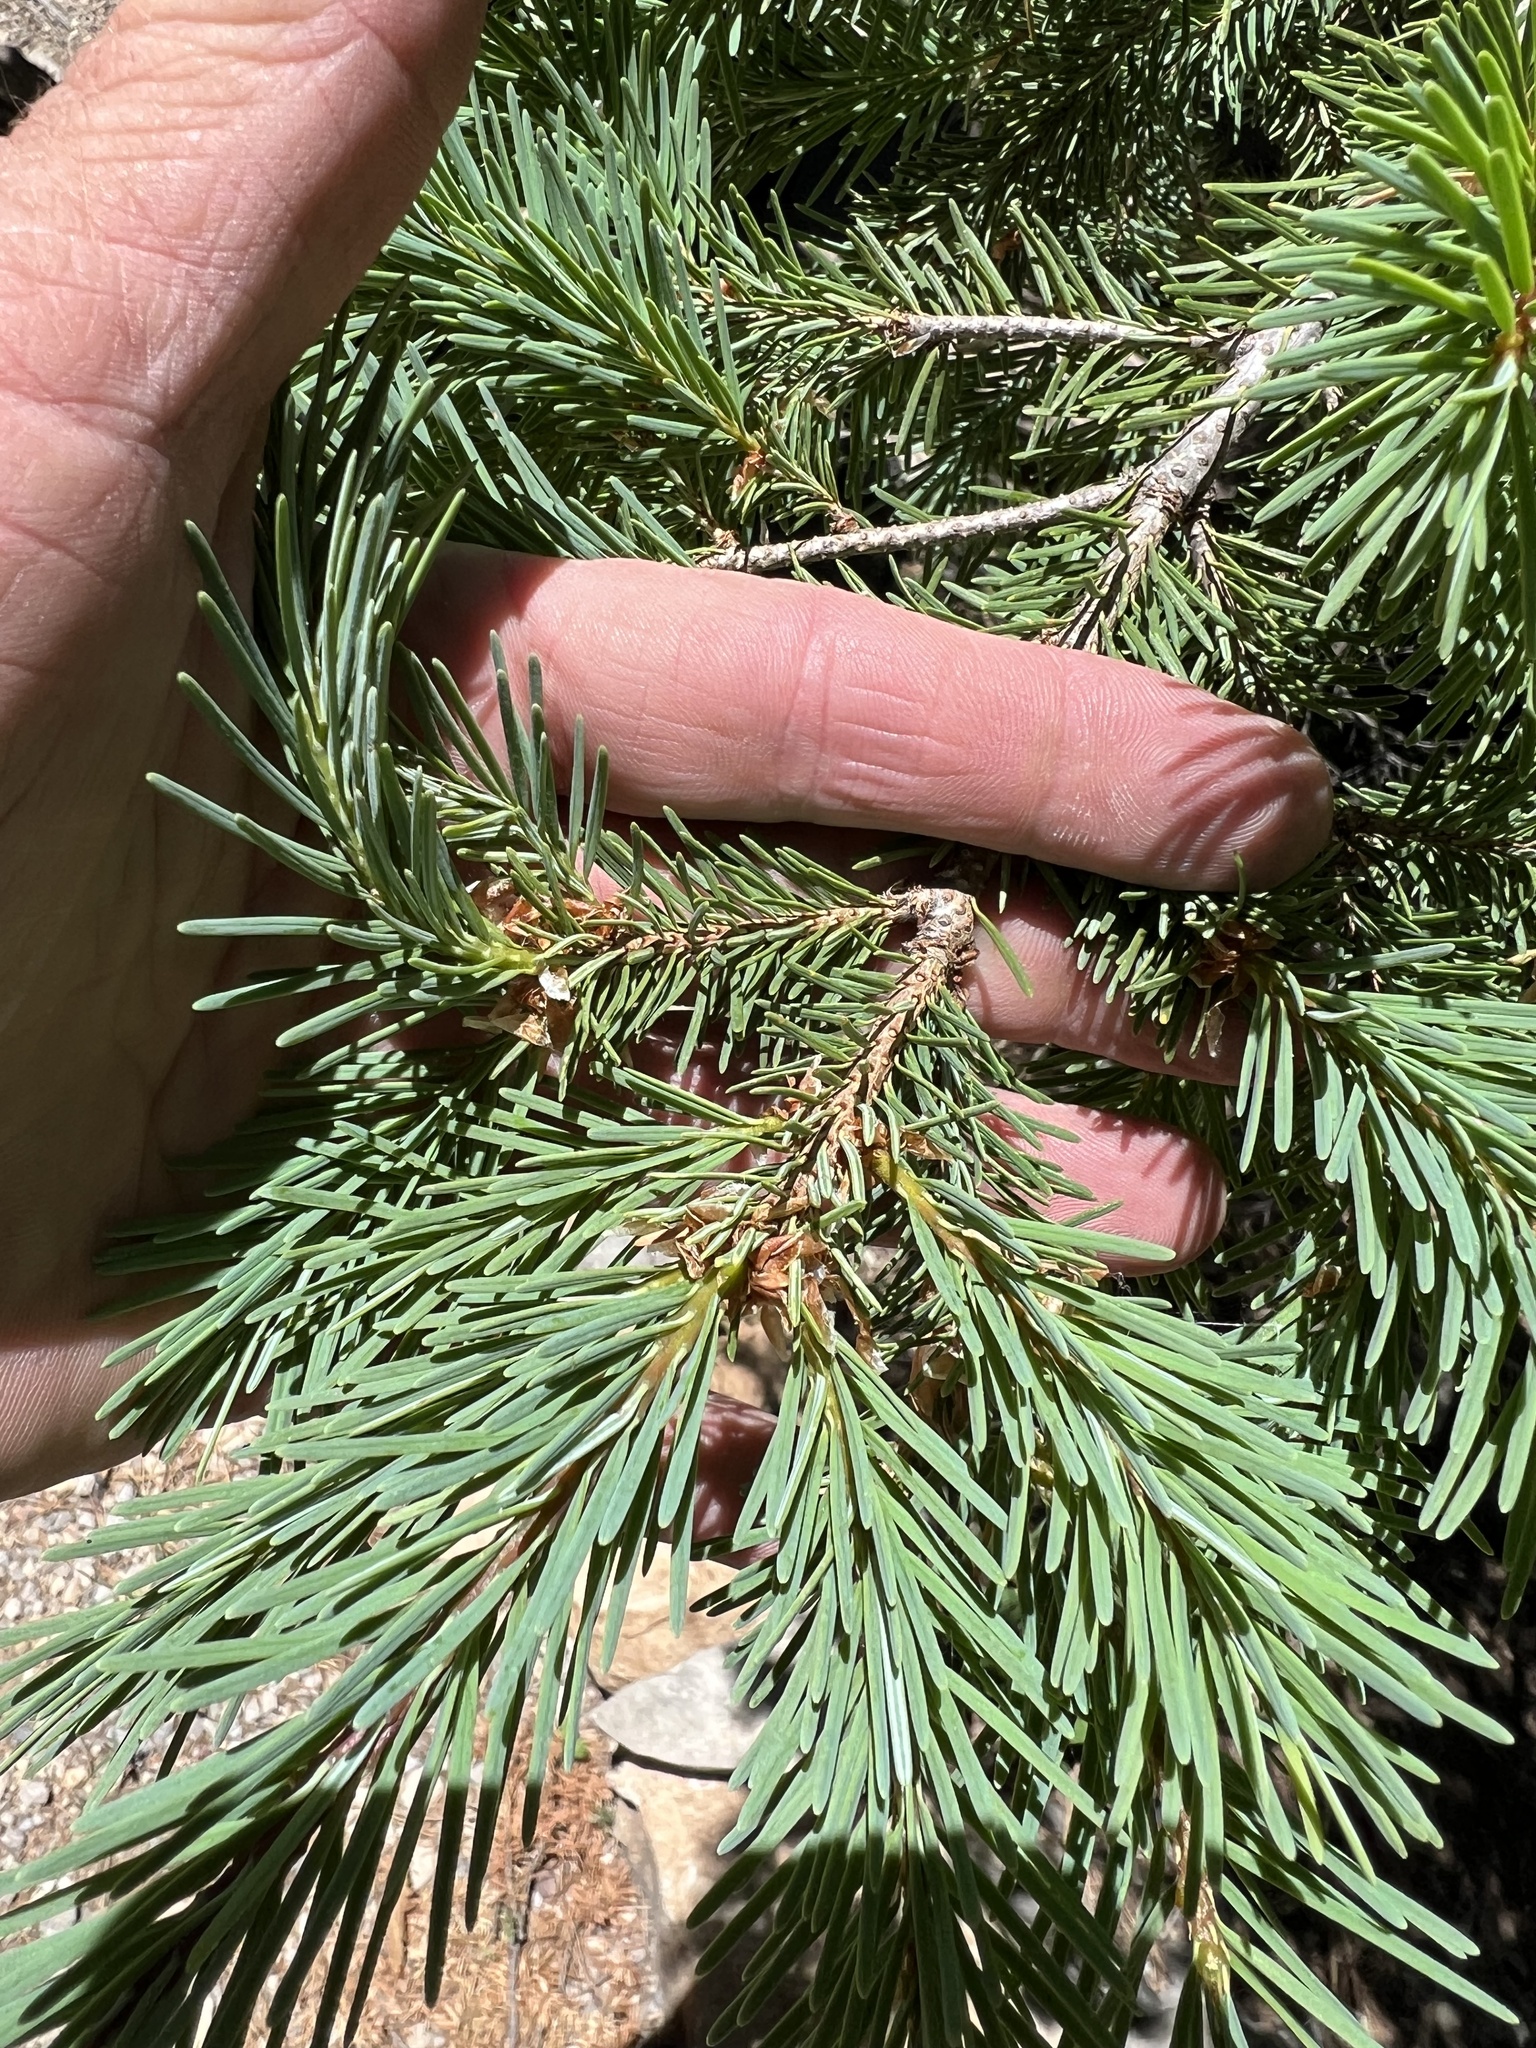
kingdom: Plantae
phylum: Tracheophyta
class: Pinopsida
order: Pinales
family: Pinaceae
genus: Pseudotsuga
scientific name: Pseudotsuga menziesii
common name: Douglas fir
